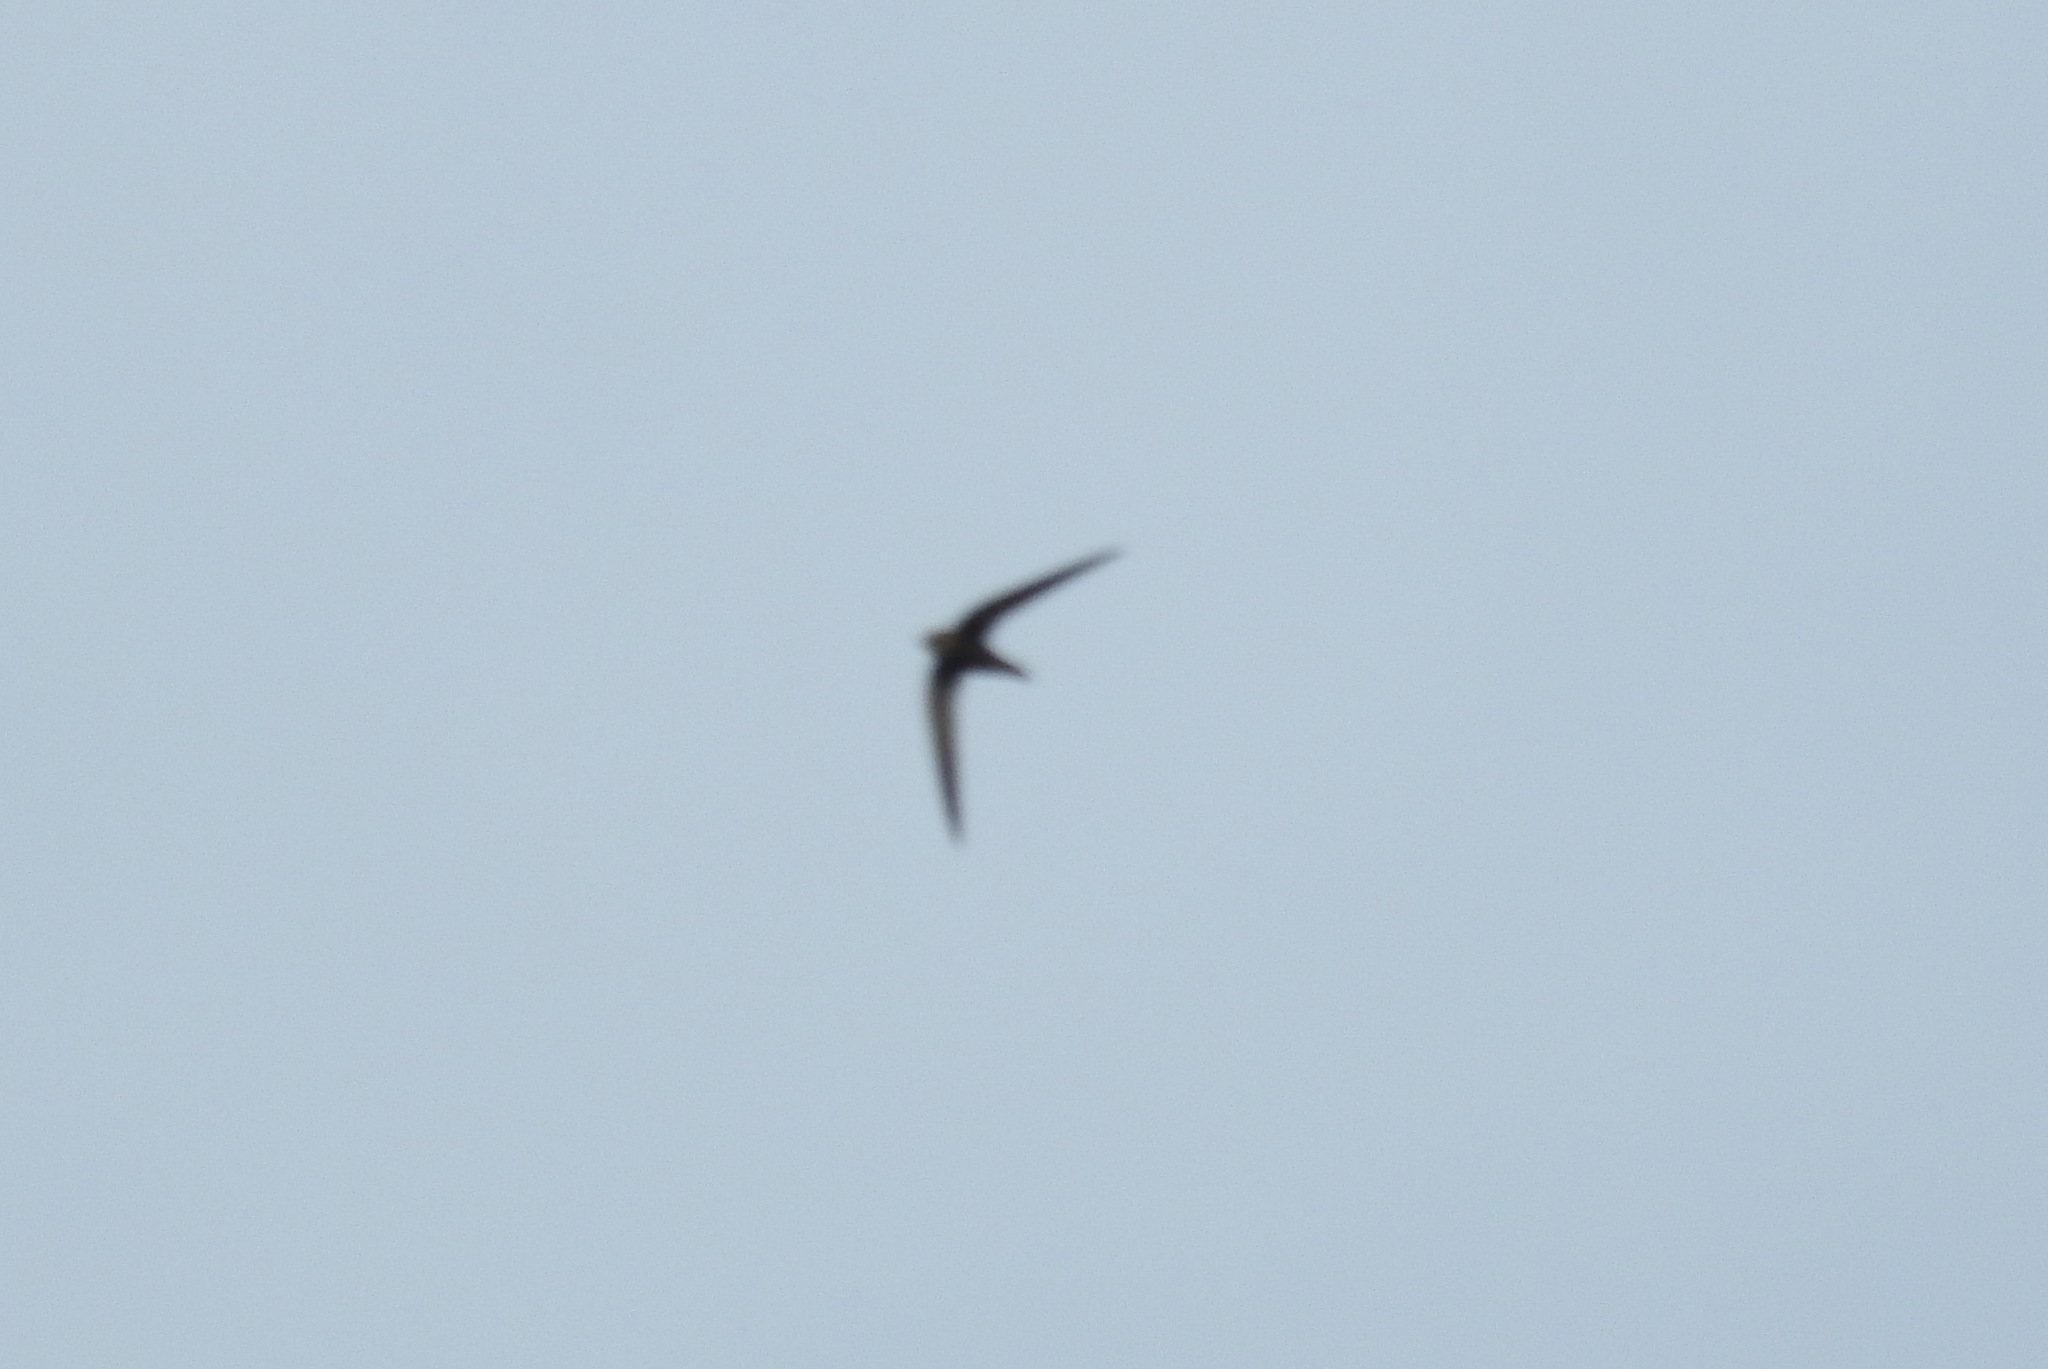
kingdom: Animalia
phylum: Chordata
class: Aves
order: Apodiformes
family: Apodidae
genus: Apus
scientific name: Apus pallidus
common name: Pallid swift
